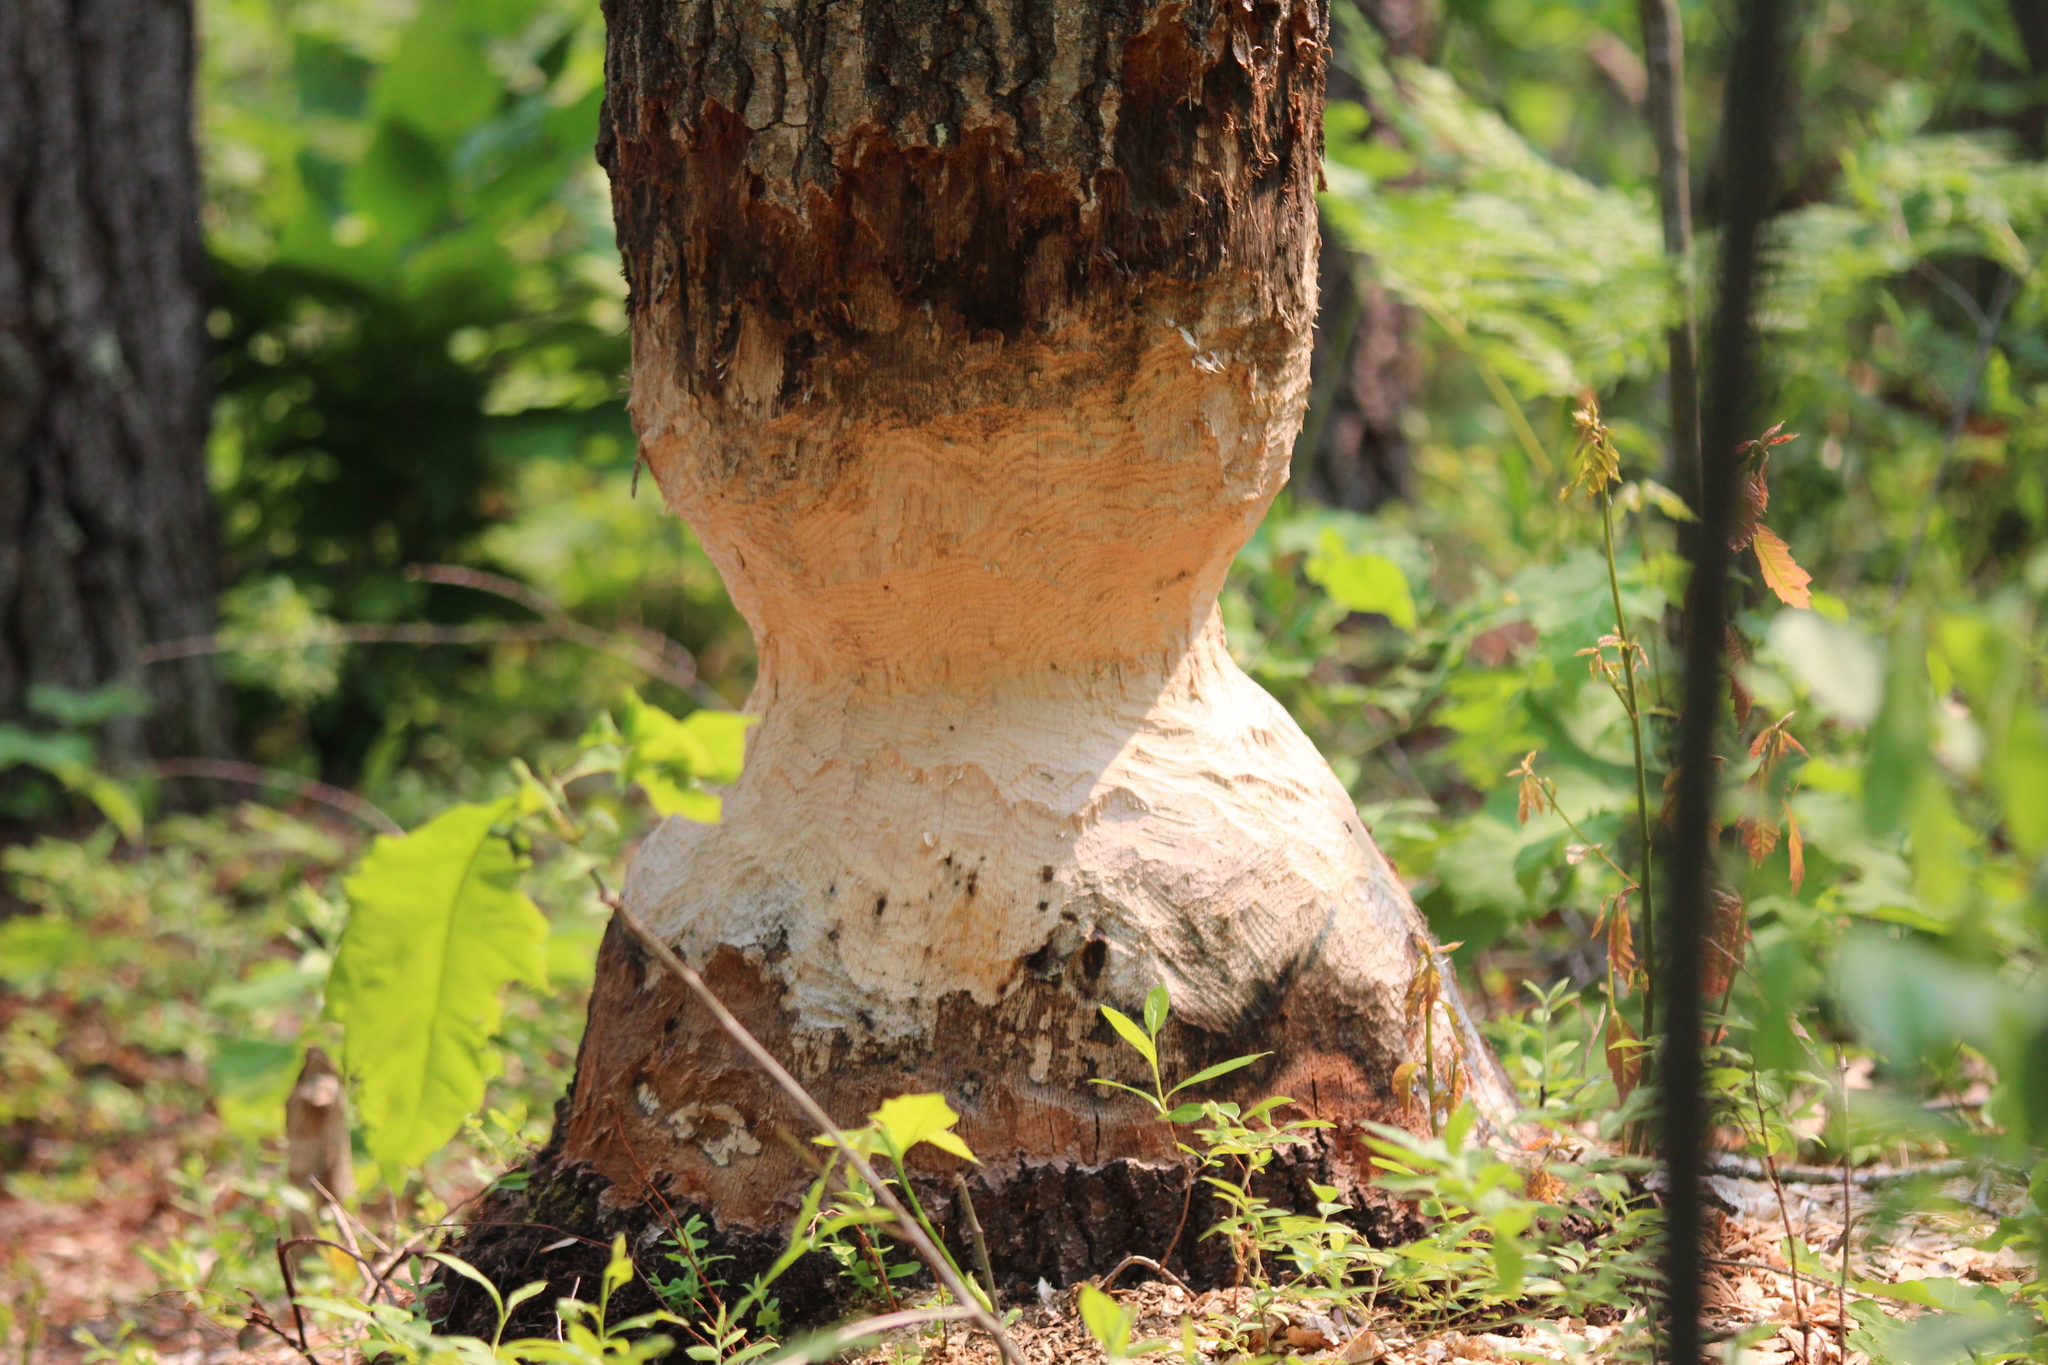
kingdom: Animalia
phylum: Chordata
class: Mammalia
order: Rodentia
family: Castoridae
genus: Castor
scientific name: Castor canadensis
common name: American beaver
